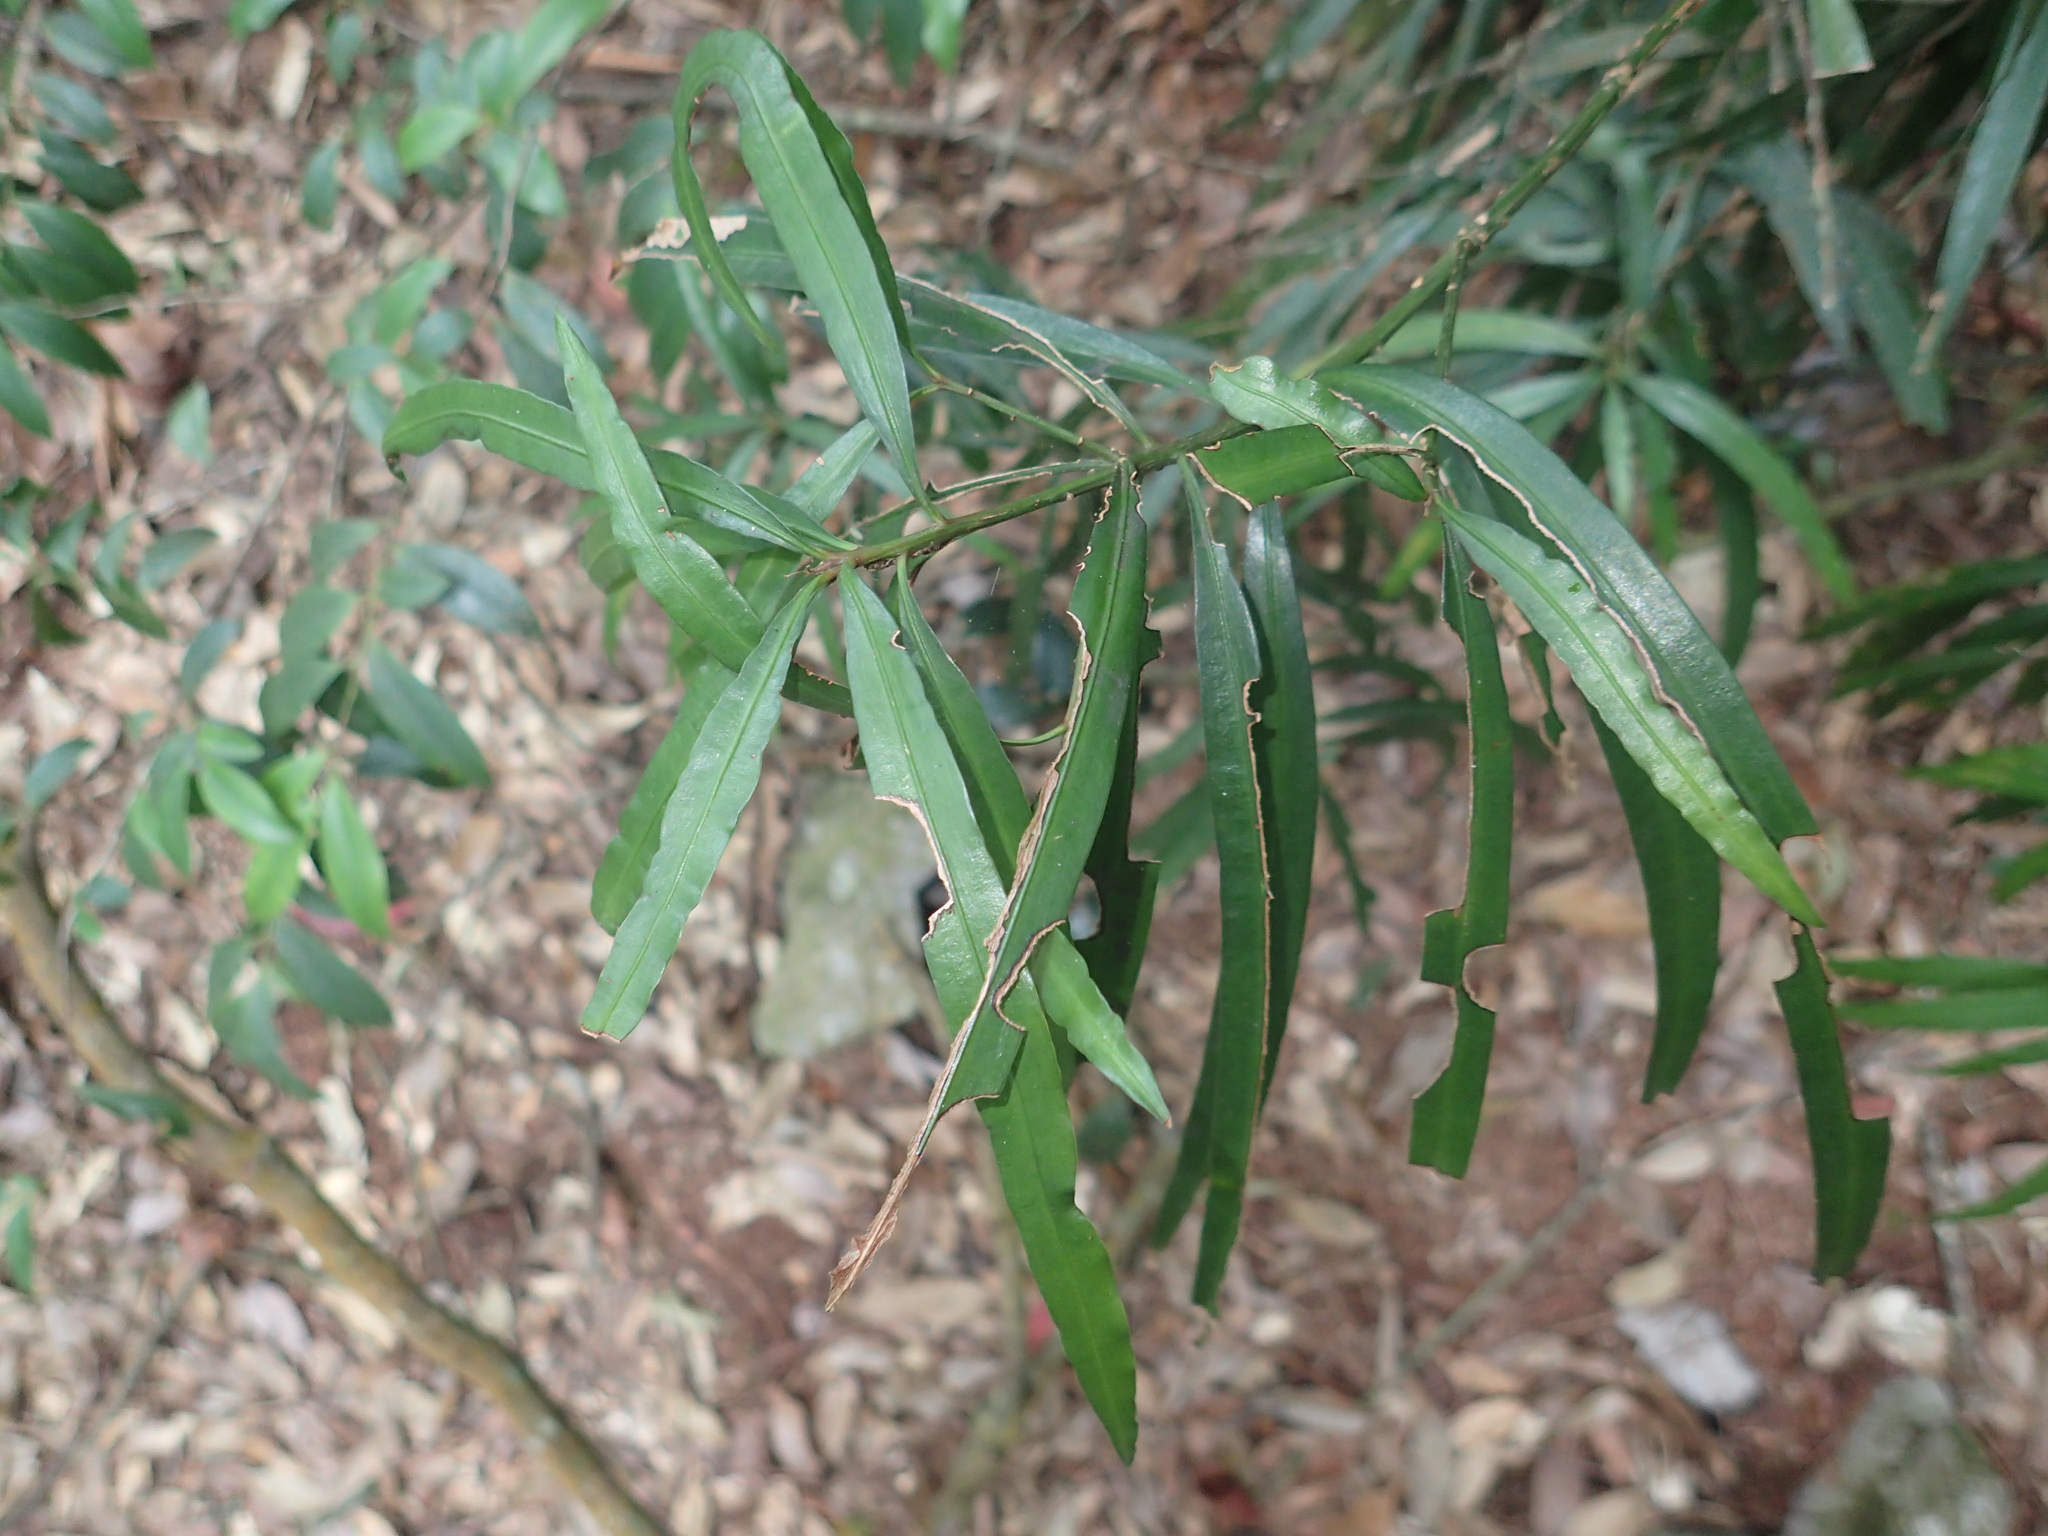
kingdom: Plantae
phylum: Tracheophyta
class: Pinopsida
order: Pinales
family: Podocarpaceae
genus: Podocarpus
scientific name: Podocarpus fasciculus
